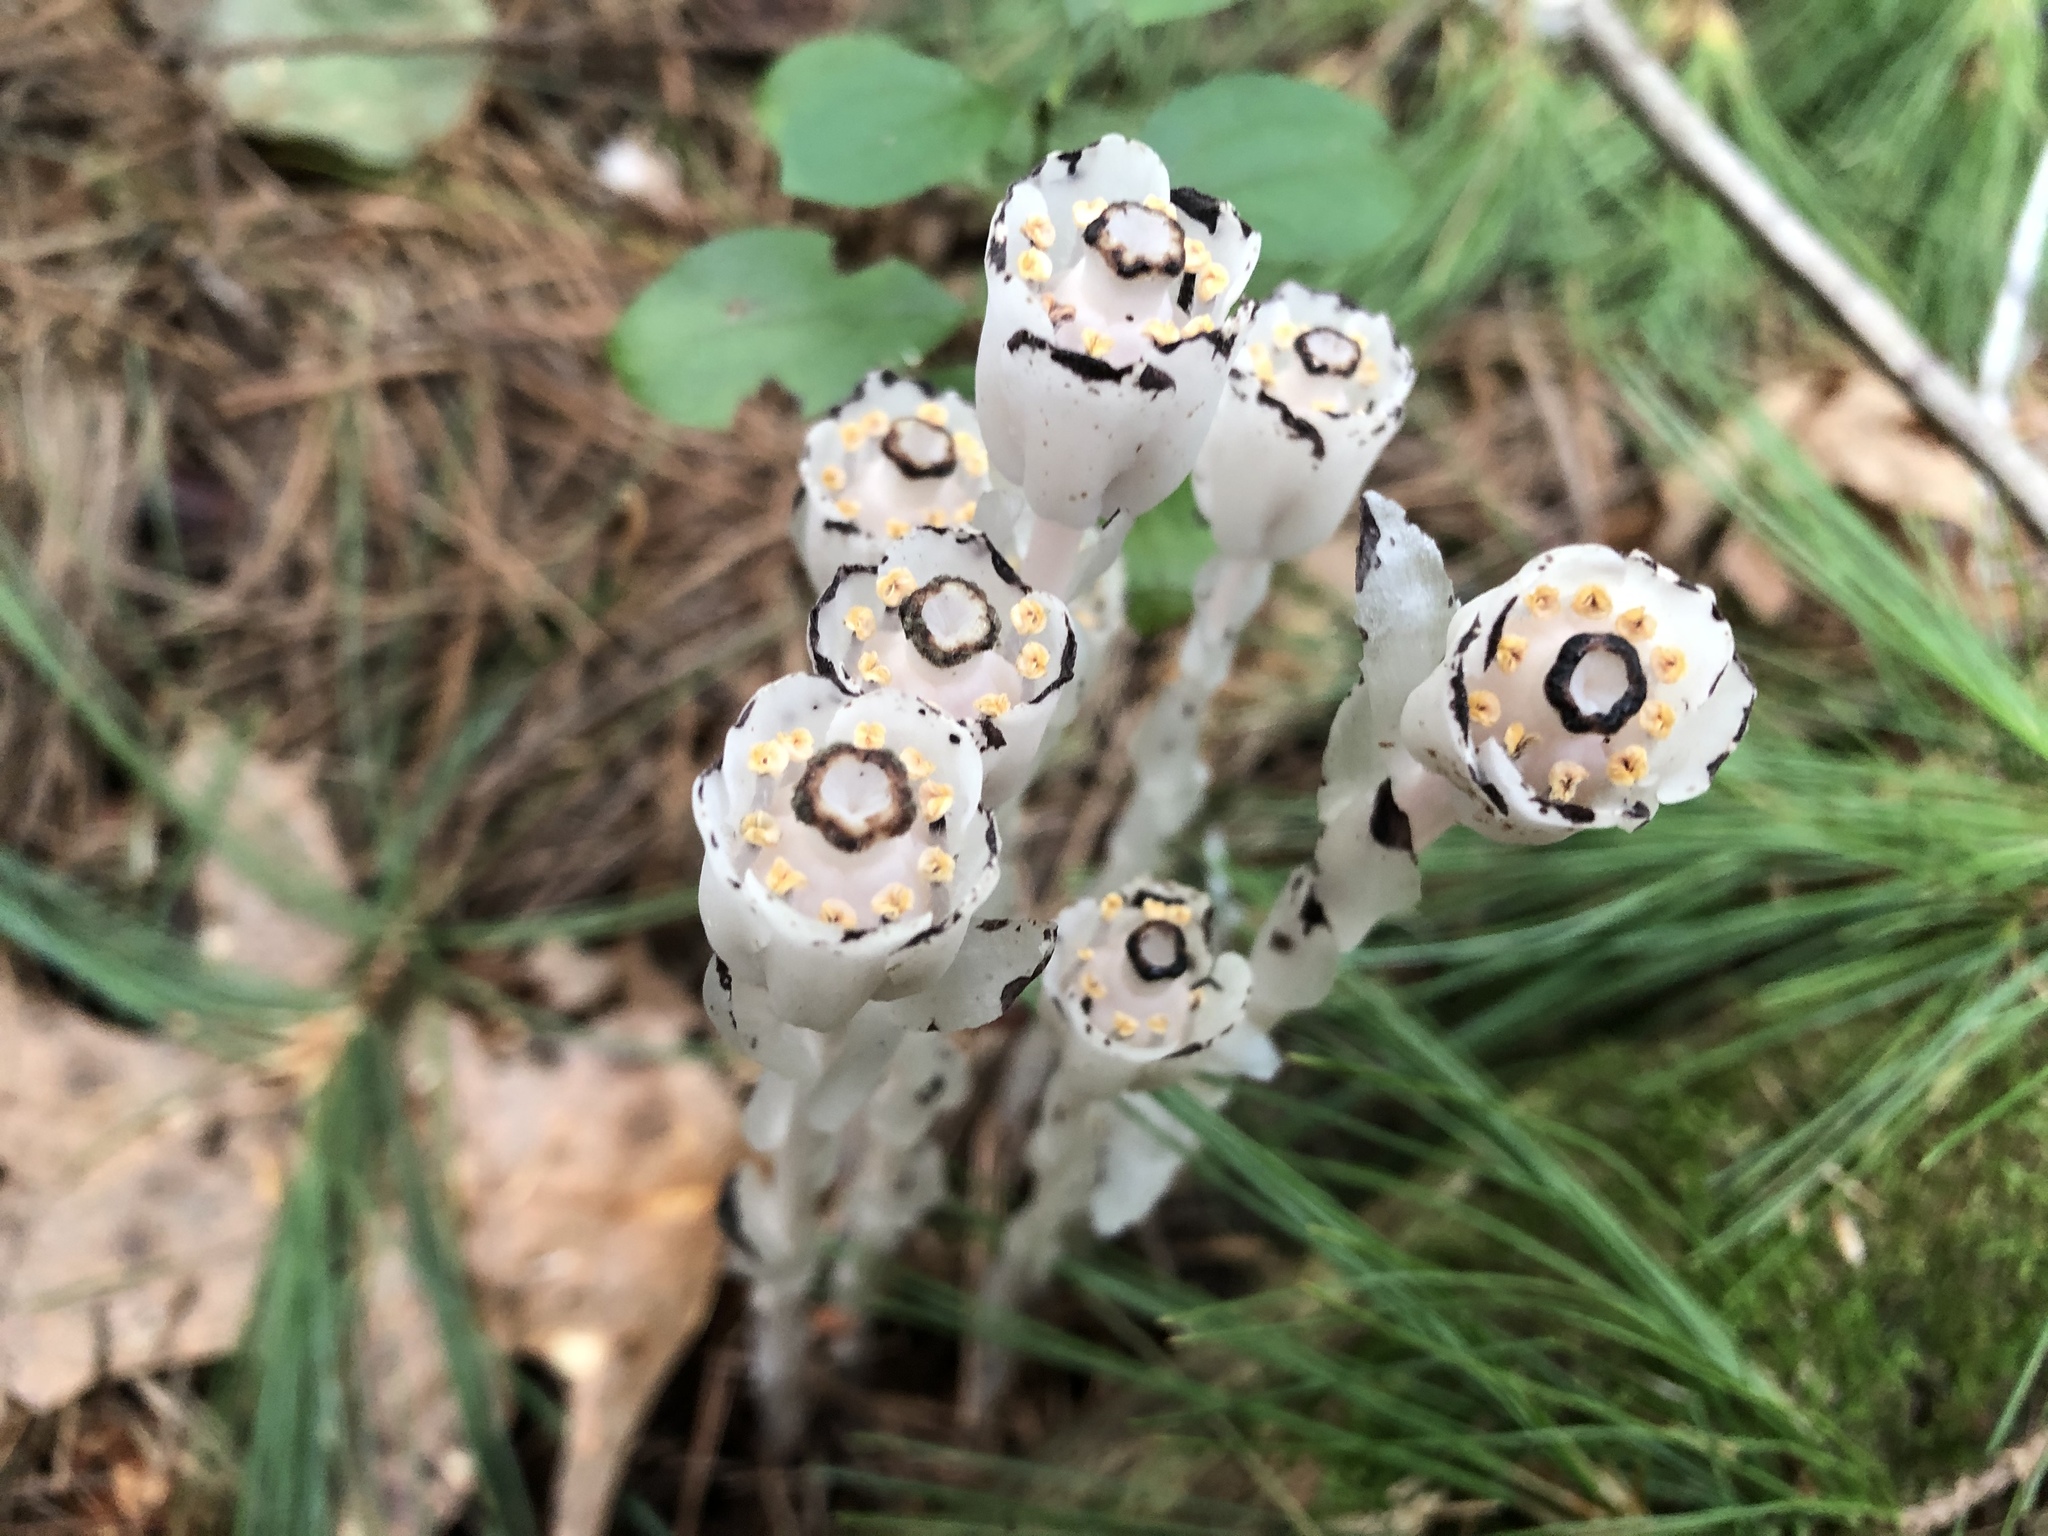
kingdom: Plantae
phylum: Tracheophyta
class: Magnoliopsida
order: Ericales
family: Ericaceae
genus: Monotropa
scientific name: Monotropa uniflora
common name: Convulsion root
